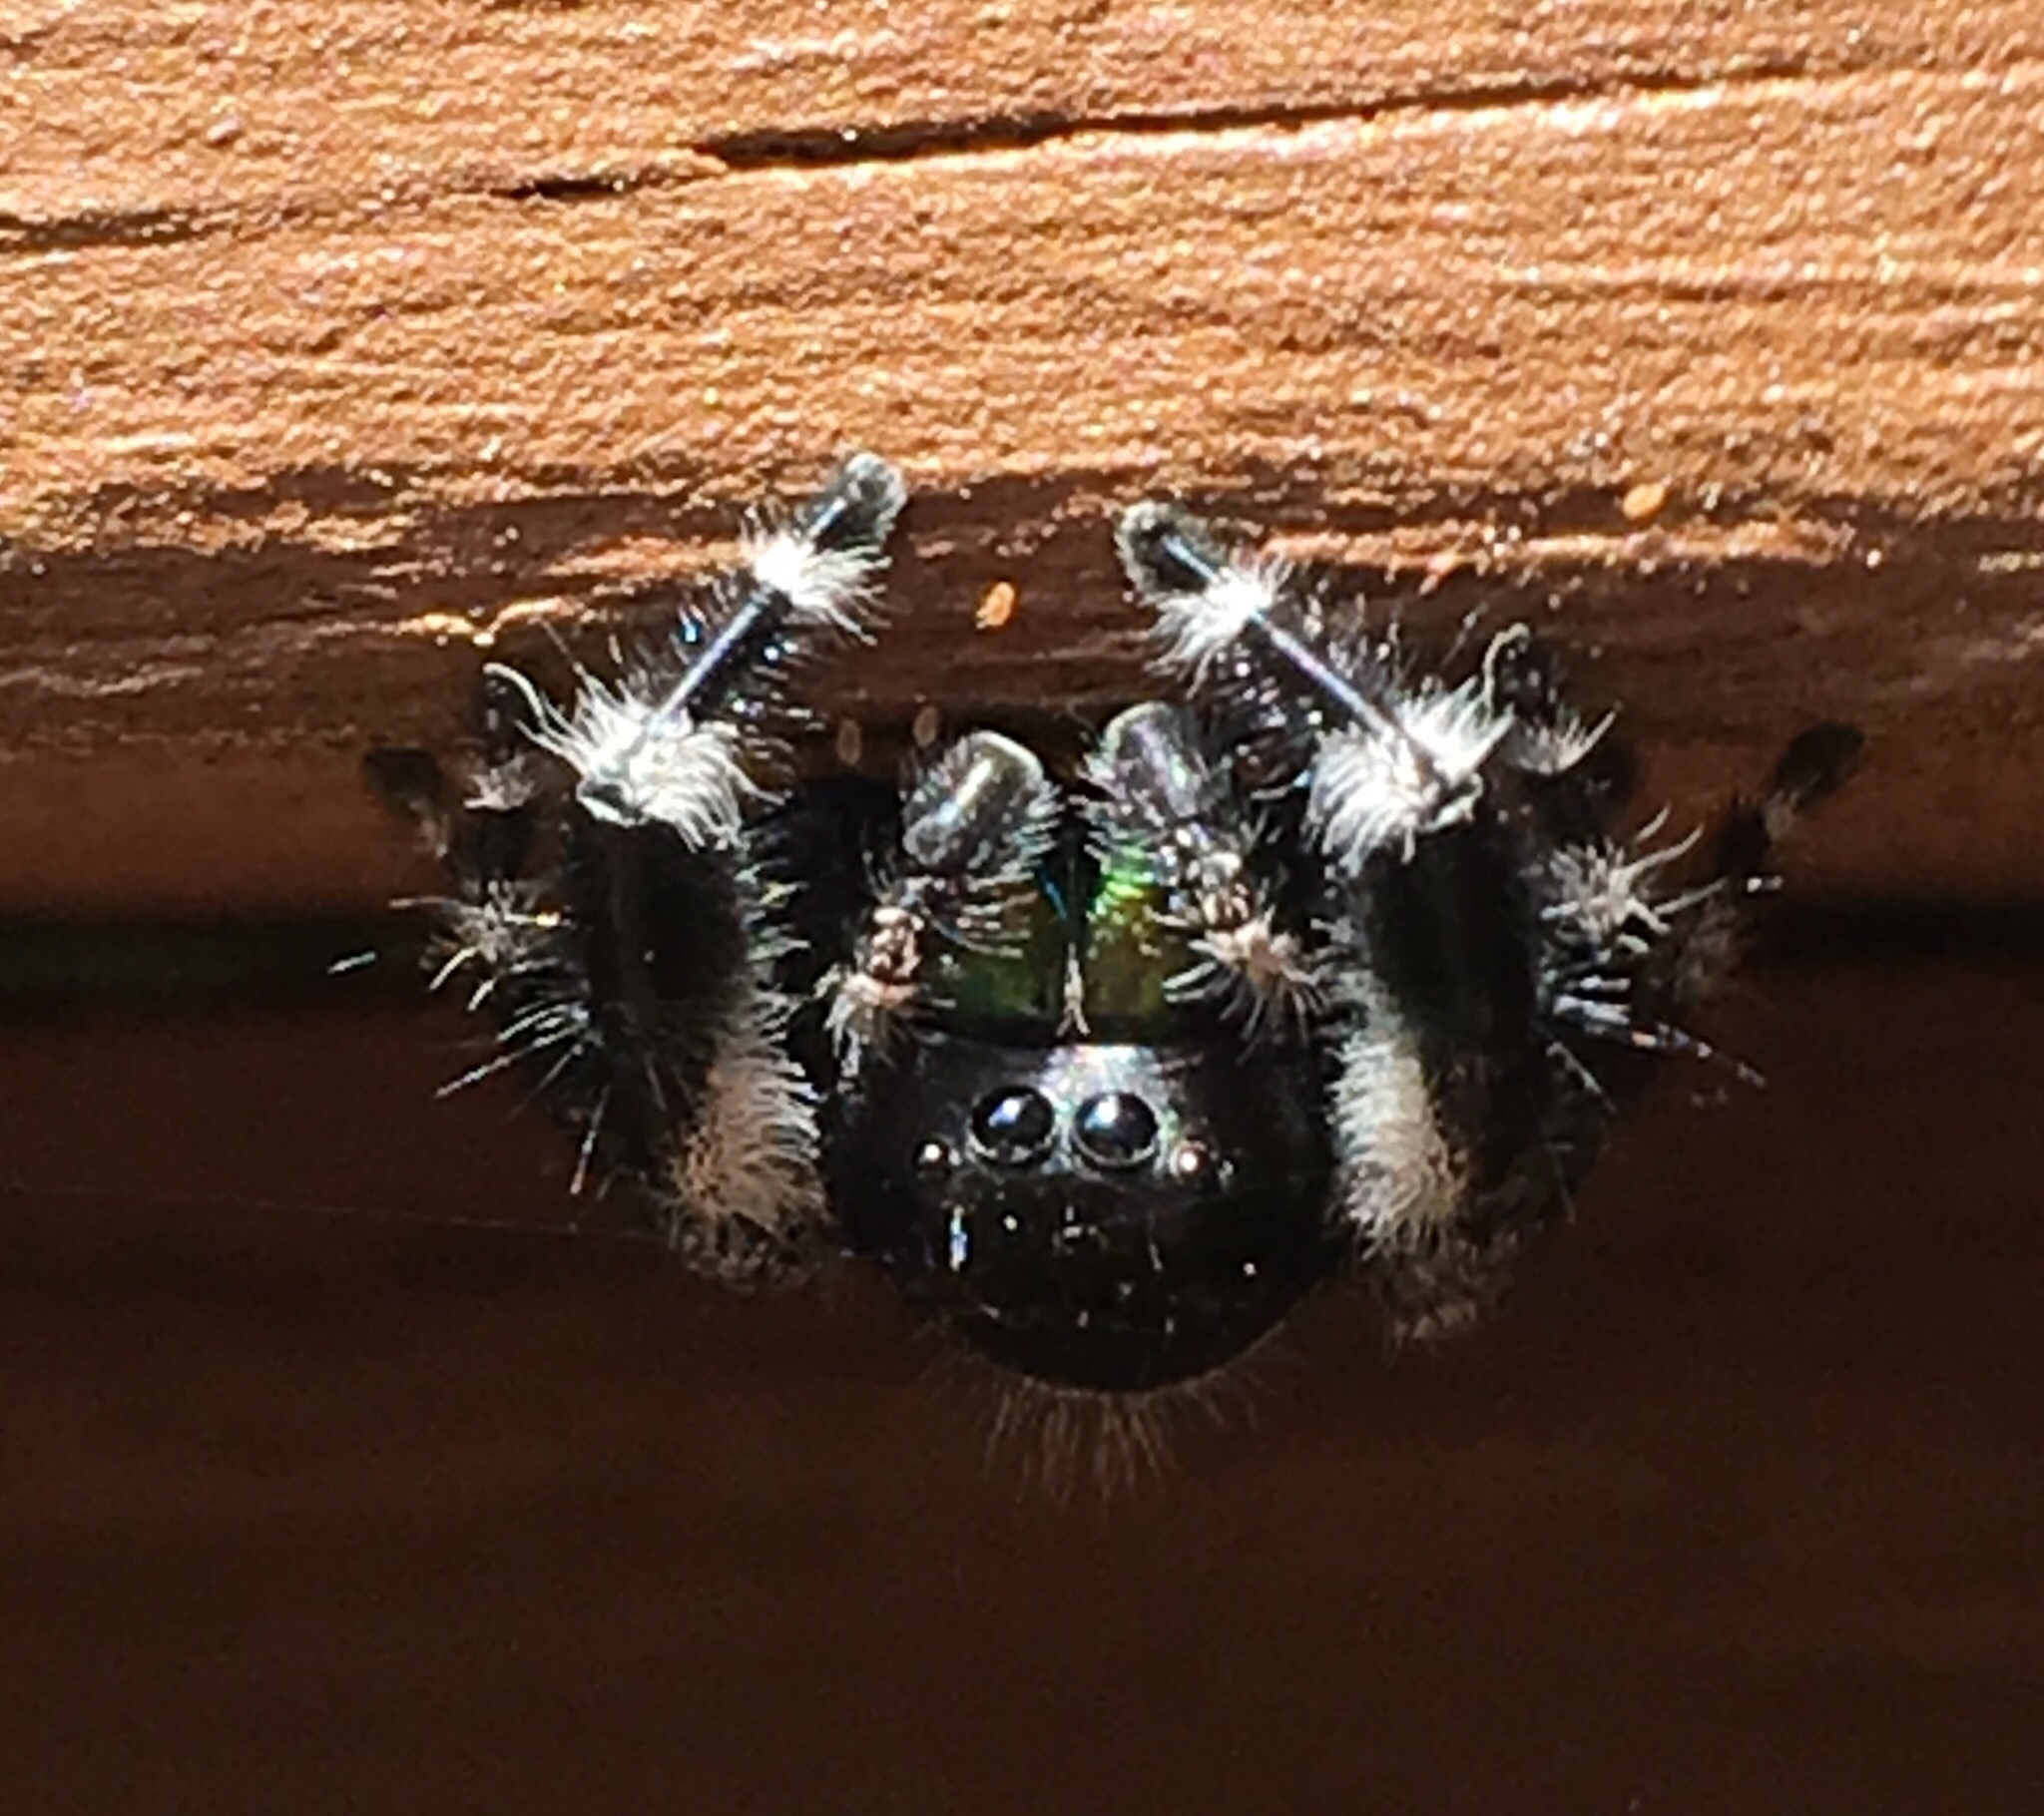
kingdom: Animalia
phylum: Arthropoda
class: Arachnida
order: Araneae
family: Salticidae
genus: Phidippus
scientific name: Phidippus audax
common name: Bold jumper
